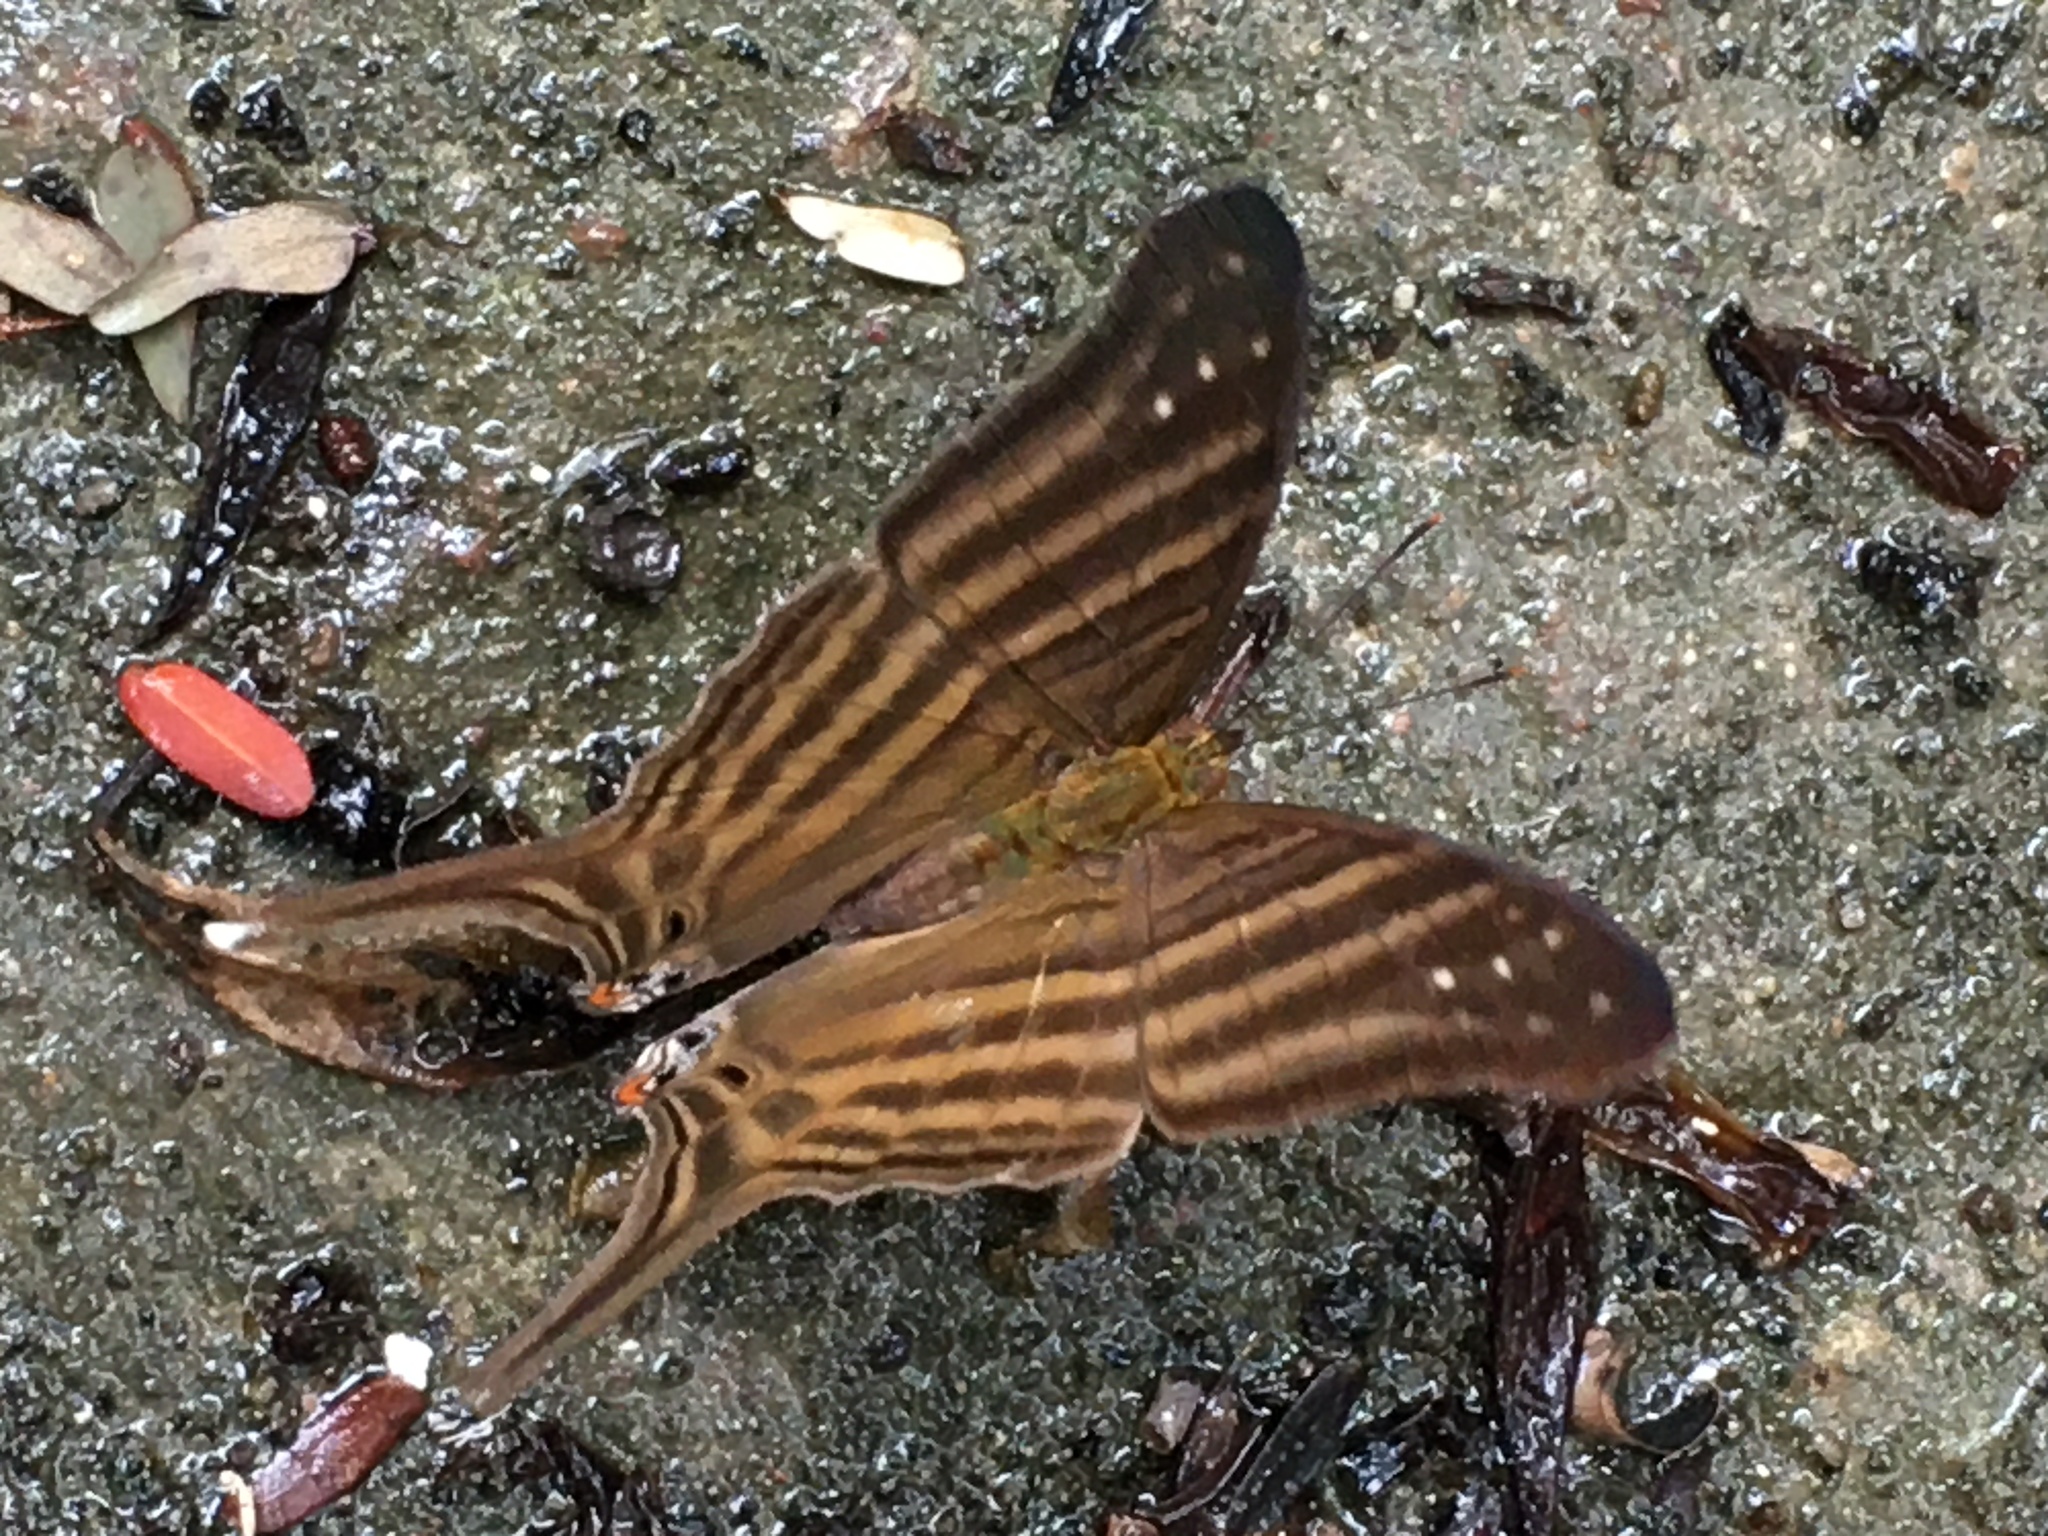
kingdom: Animalia
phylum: Arthropoda
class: Insecta
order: Lepidoptera
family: Nymphalidae
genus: Marpesia
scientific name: Marpesia chiron
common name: Many-banded daggerwing
